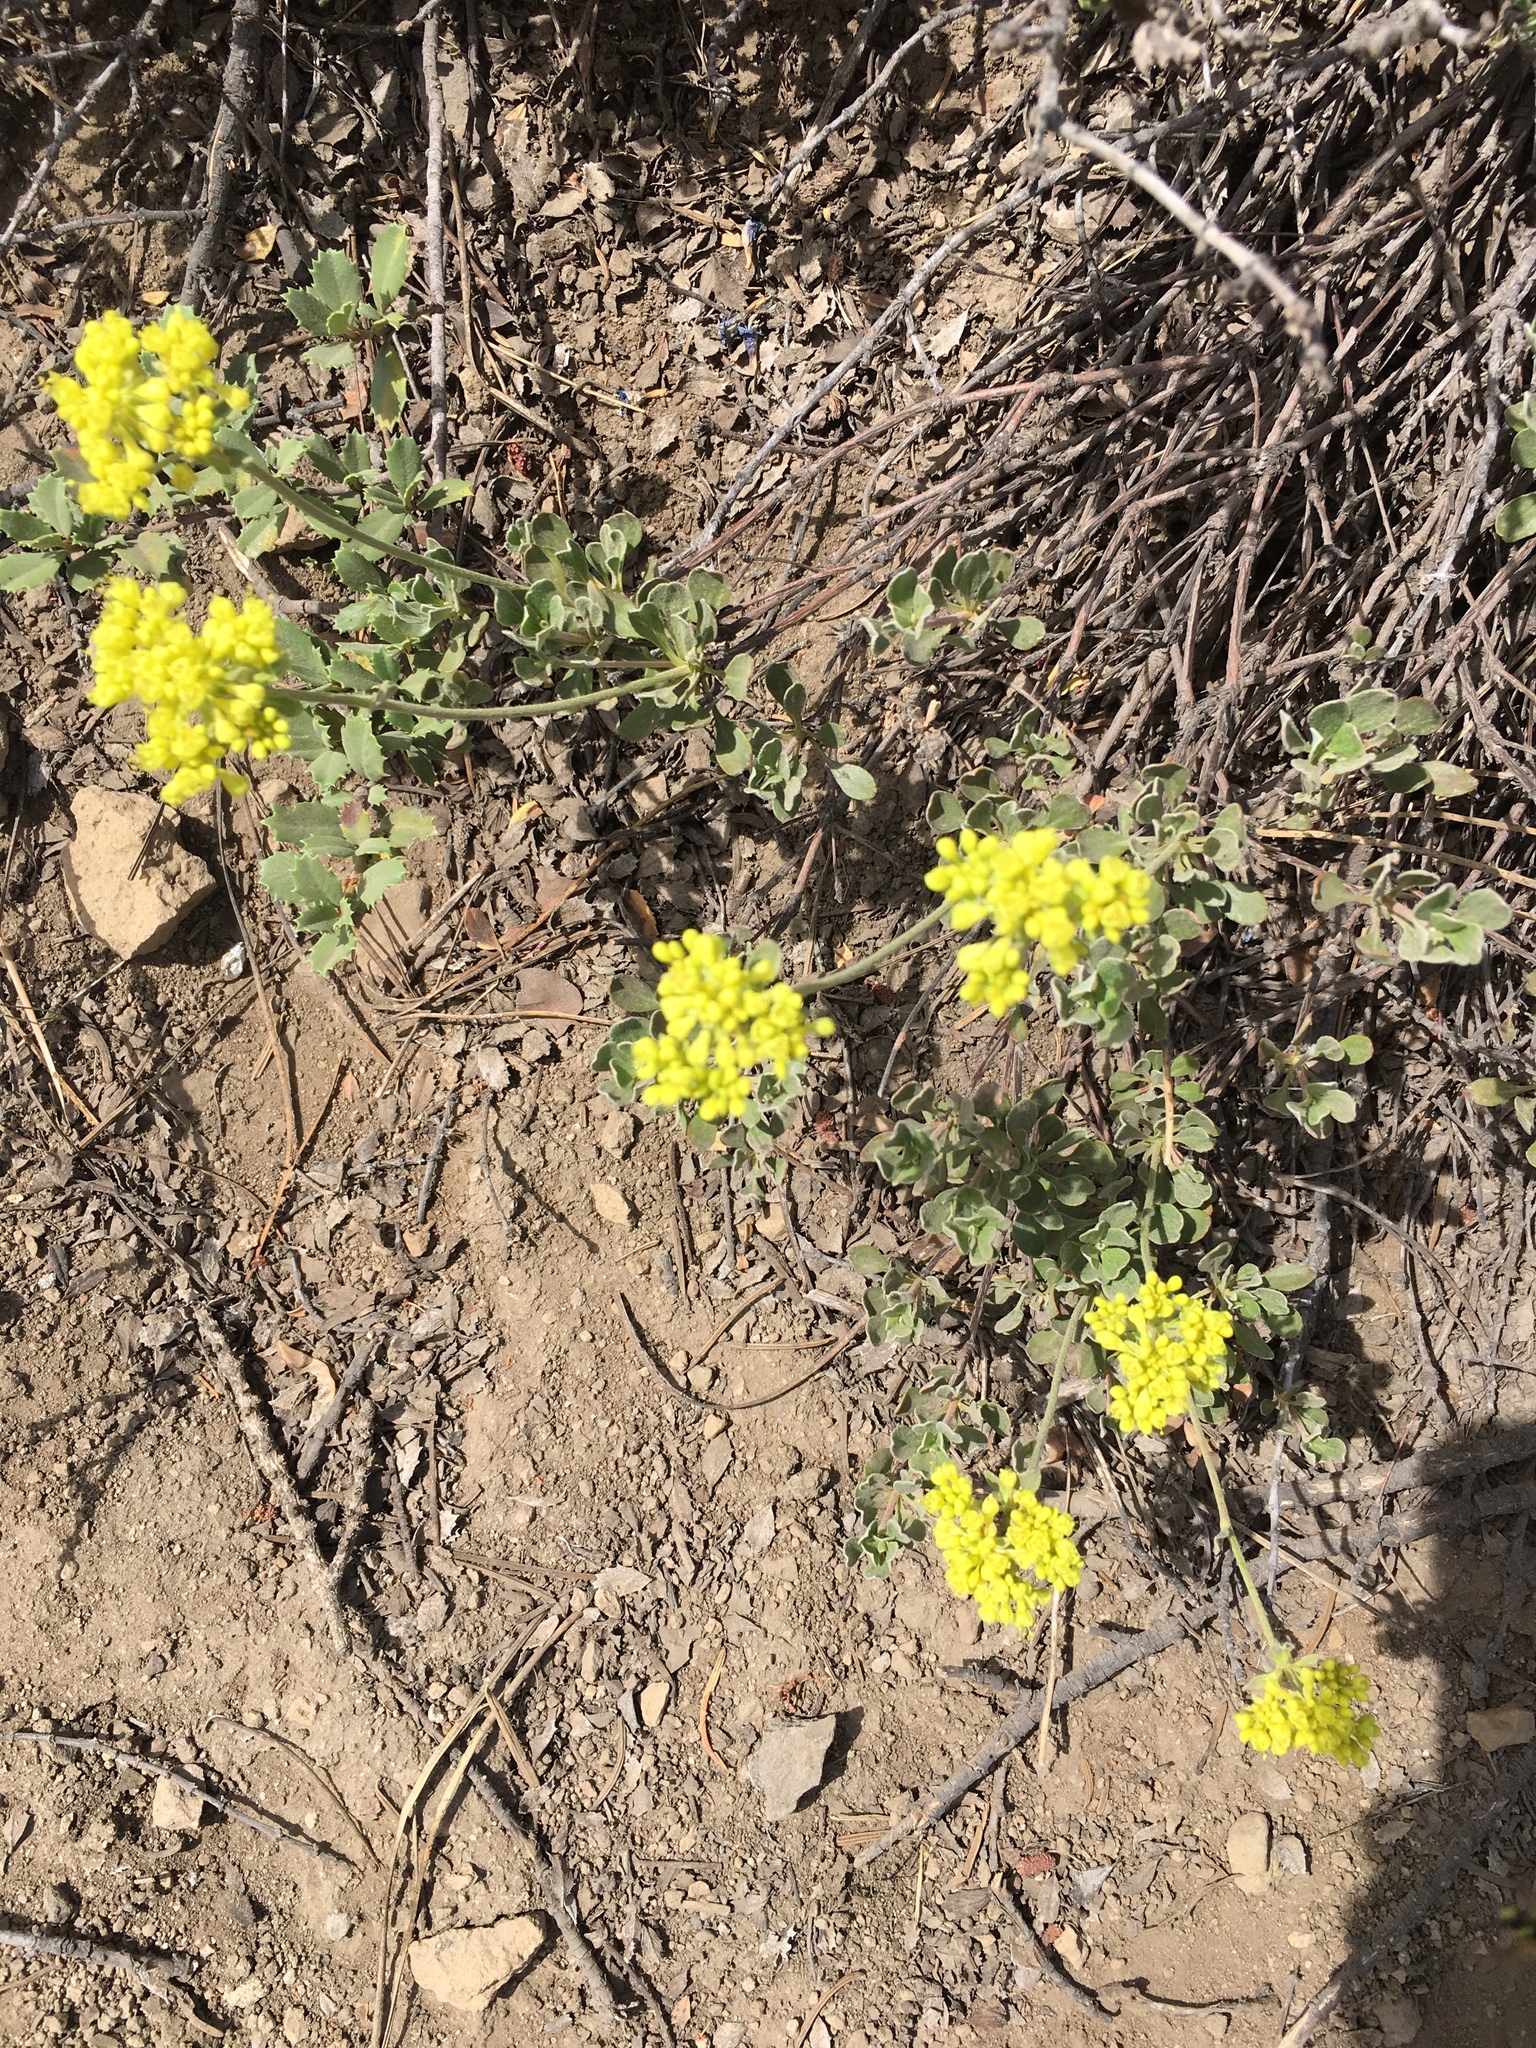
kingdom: Plantae
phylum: Tracheophyta
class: Magnoliopsida
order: Caryophyllales
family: Polygonaceae
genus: Eriogonum
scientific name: Eriogonum umbellatum
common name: Sulfur-buckwheat
